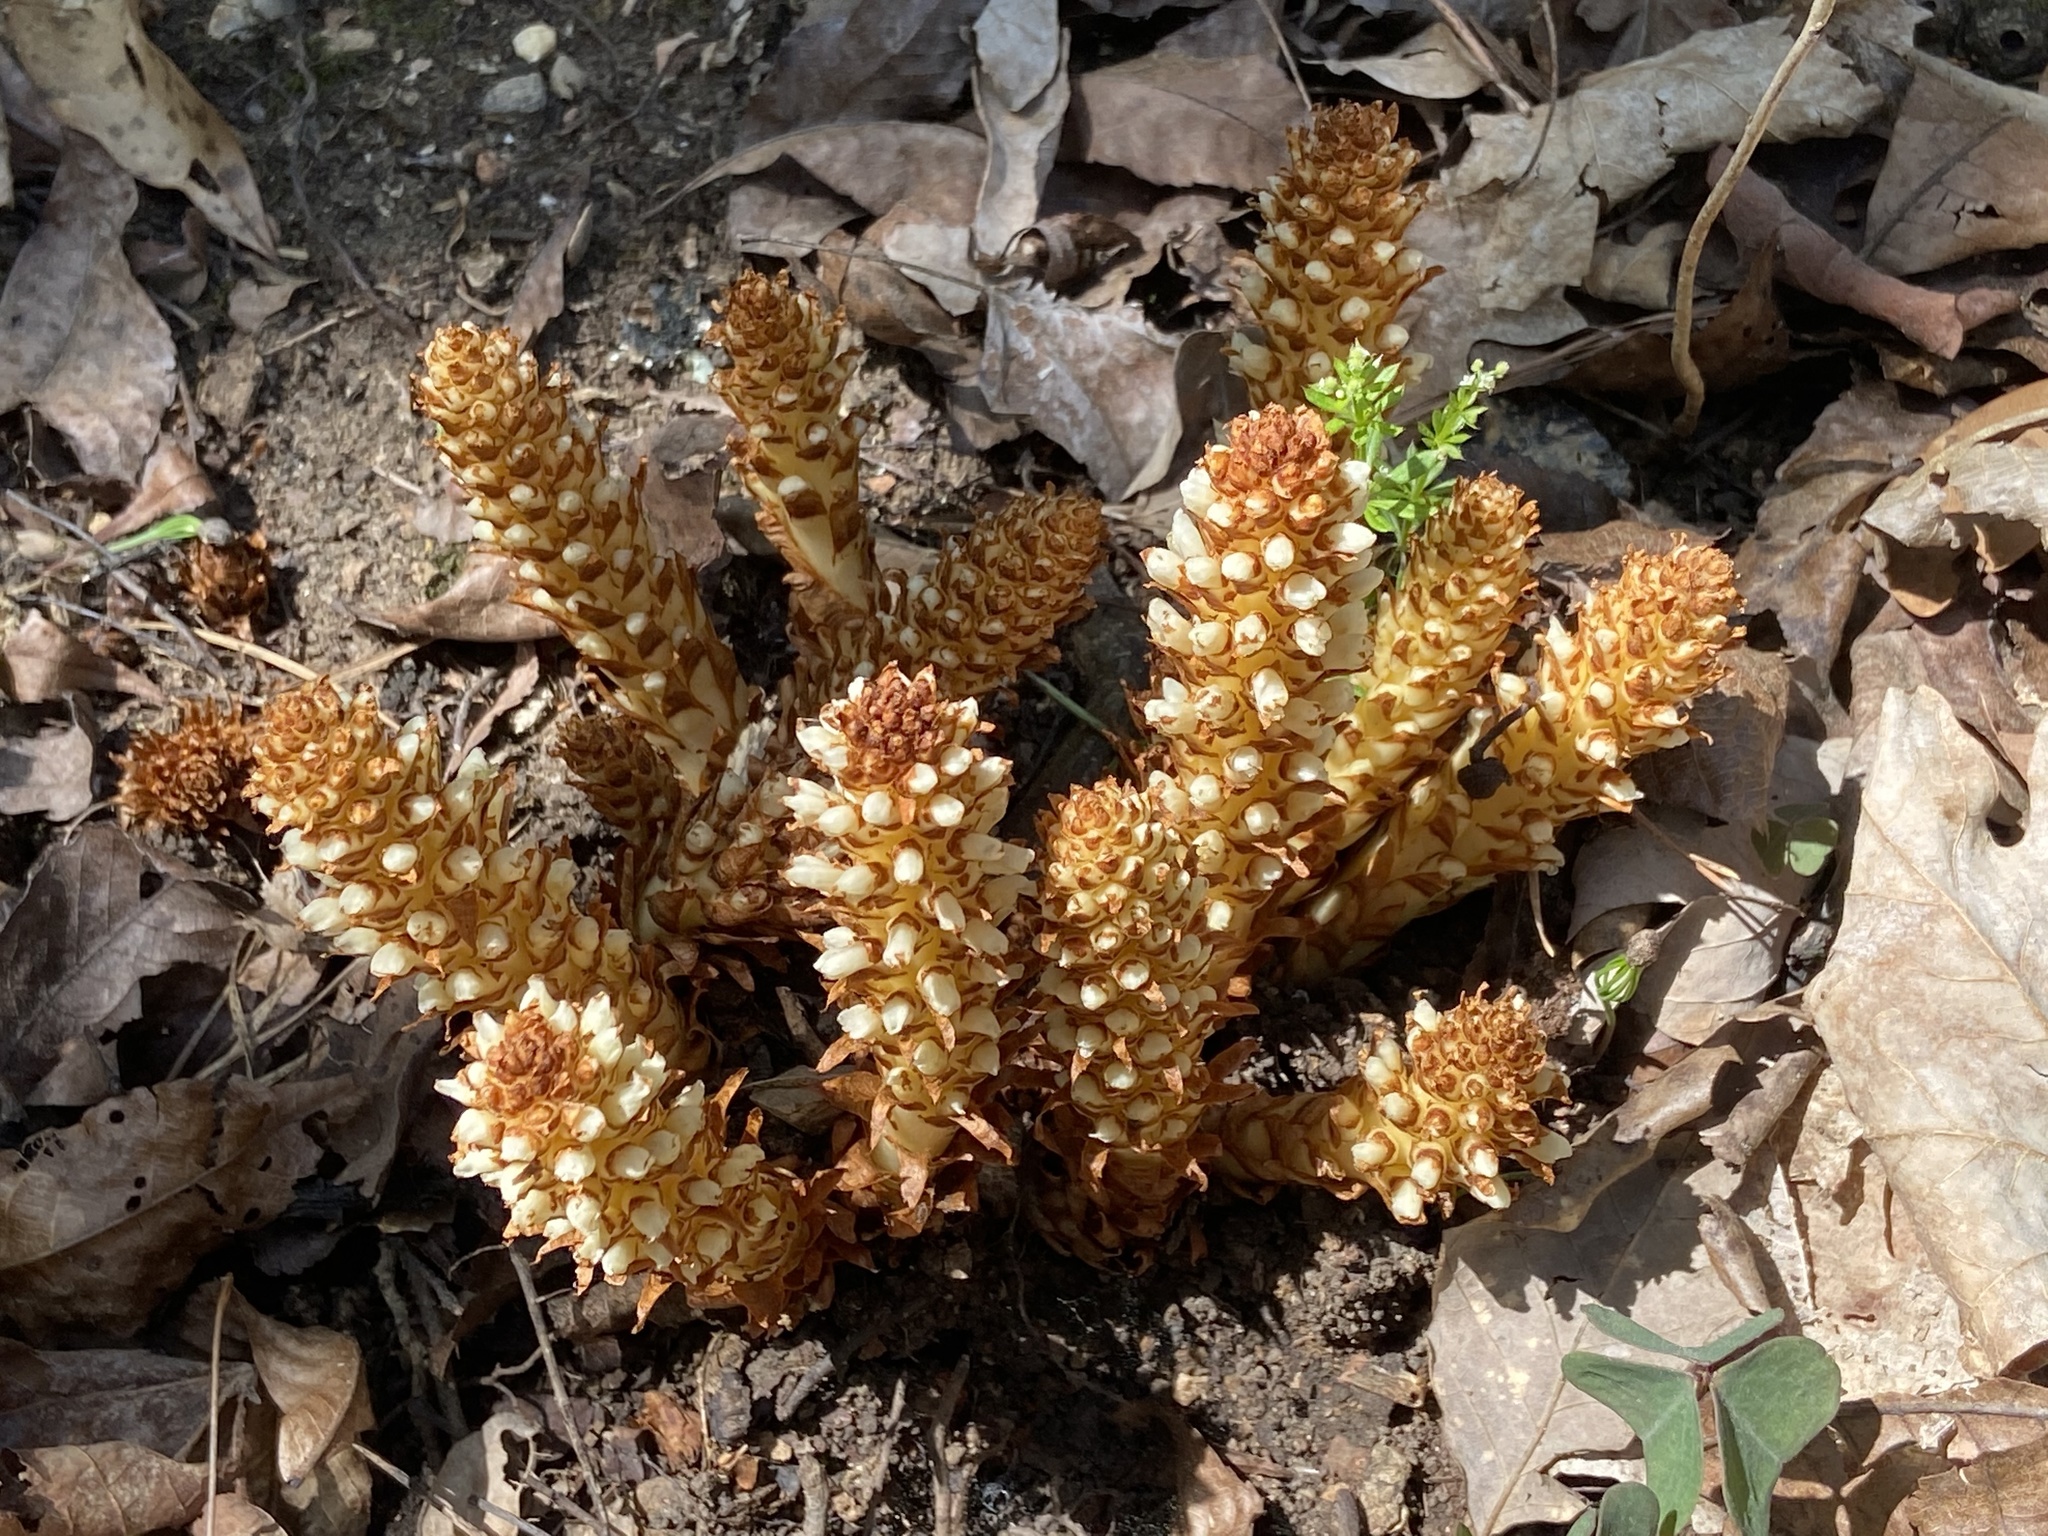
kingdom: Plantae
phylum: Tracheophyta
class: Magnoliopsida
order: Lamiales
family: Orobanchaceae
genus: Conopholis
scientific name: Conopholis americana
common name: American cancer-root
